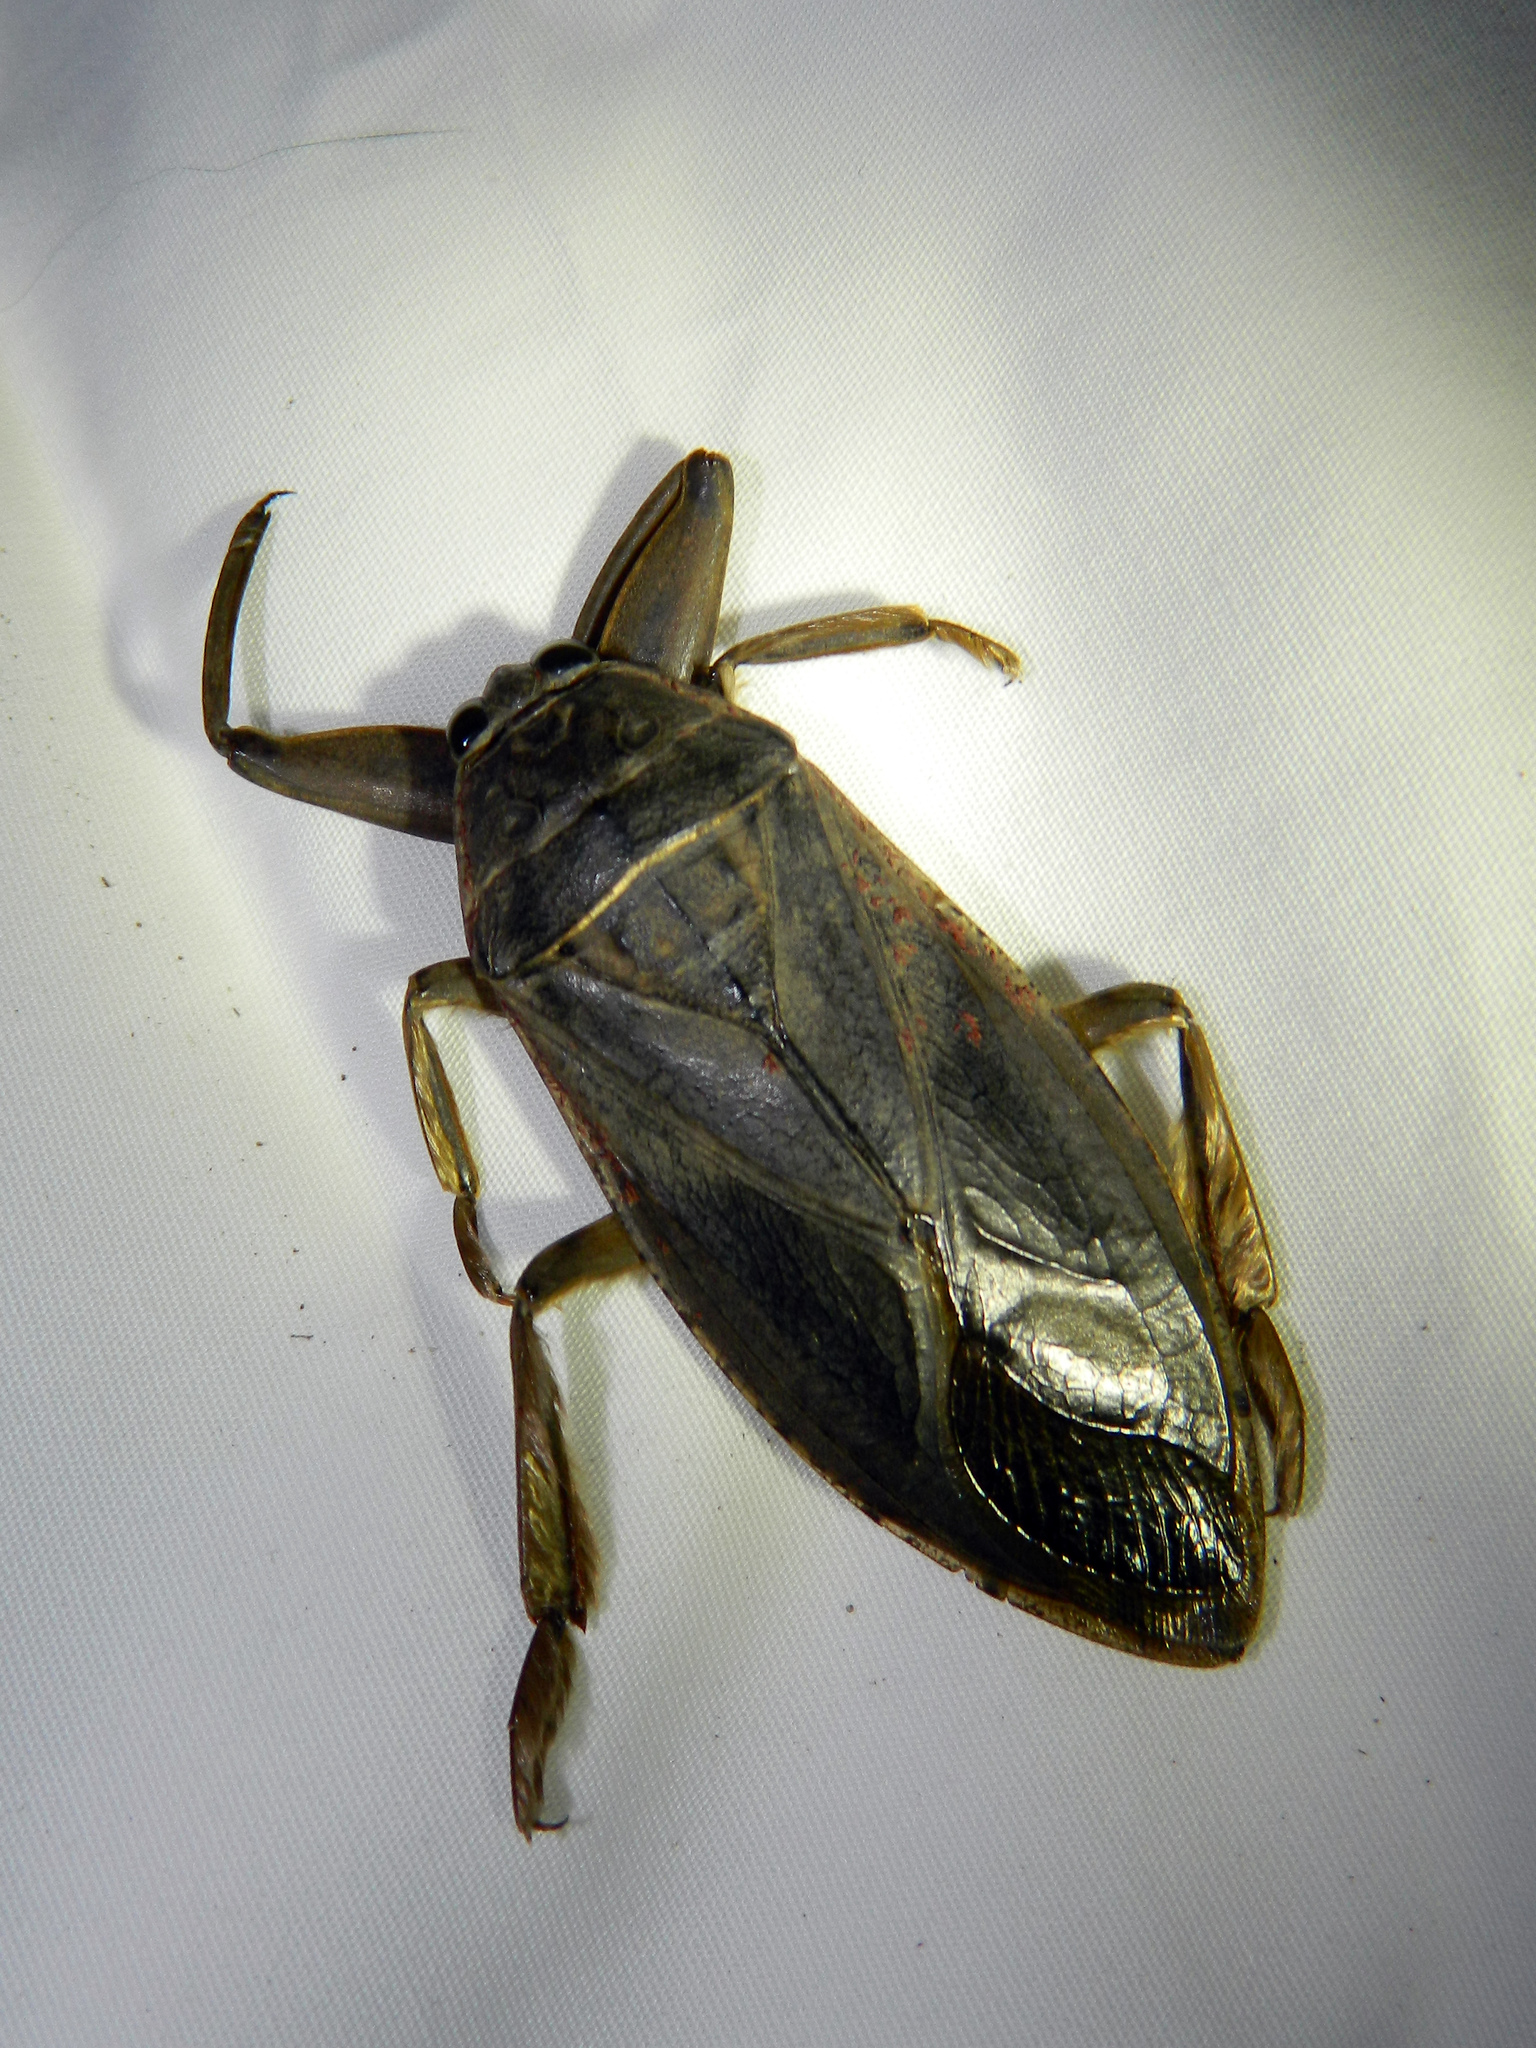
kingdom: Animalia
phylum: Arthropoda
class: Insecta
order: Hemiptera
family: Belostomatidae
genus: Lethocerus
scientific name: Lethocerus americanus
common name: Giant water bug
